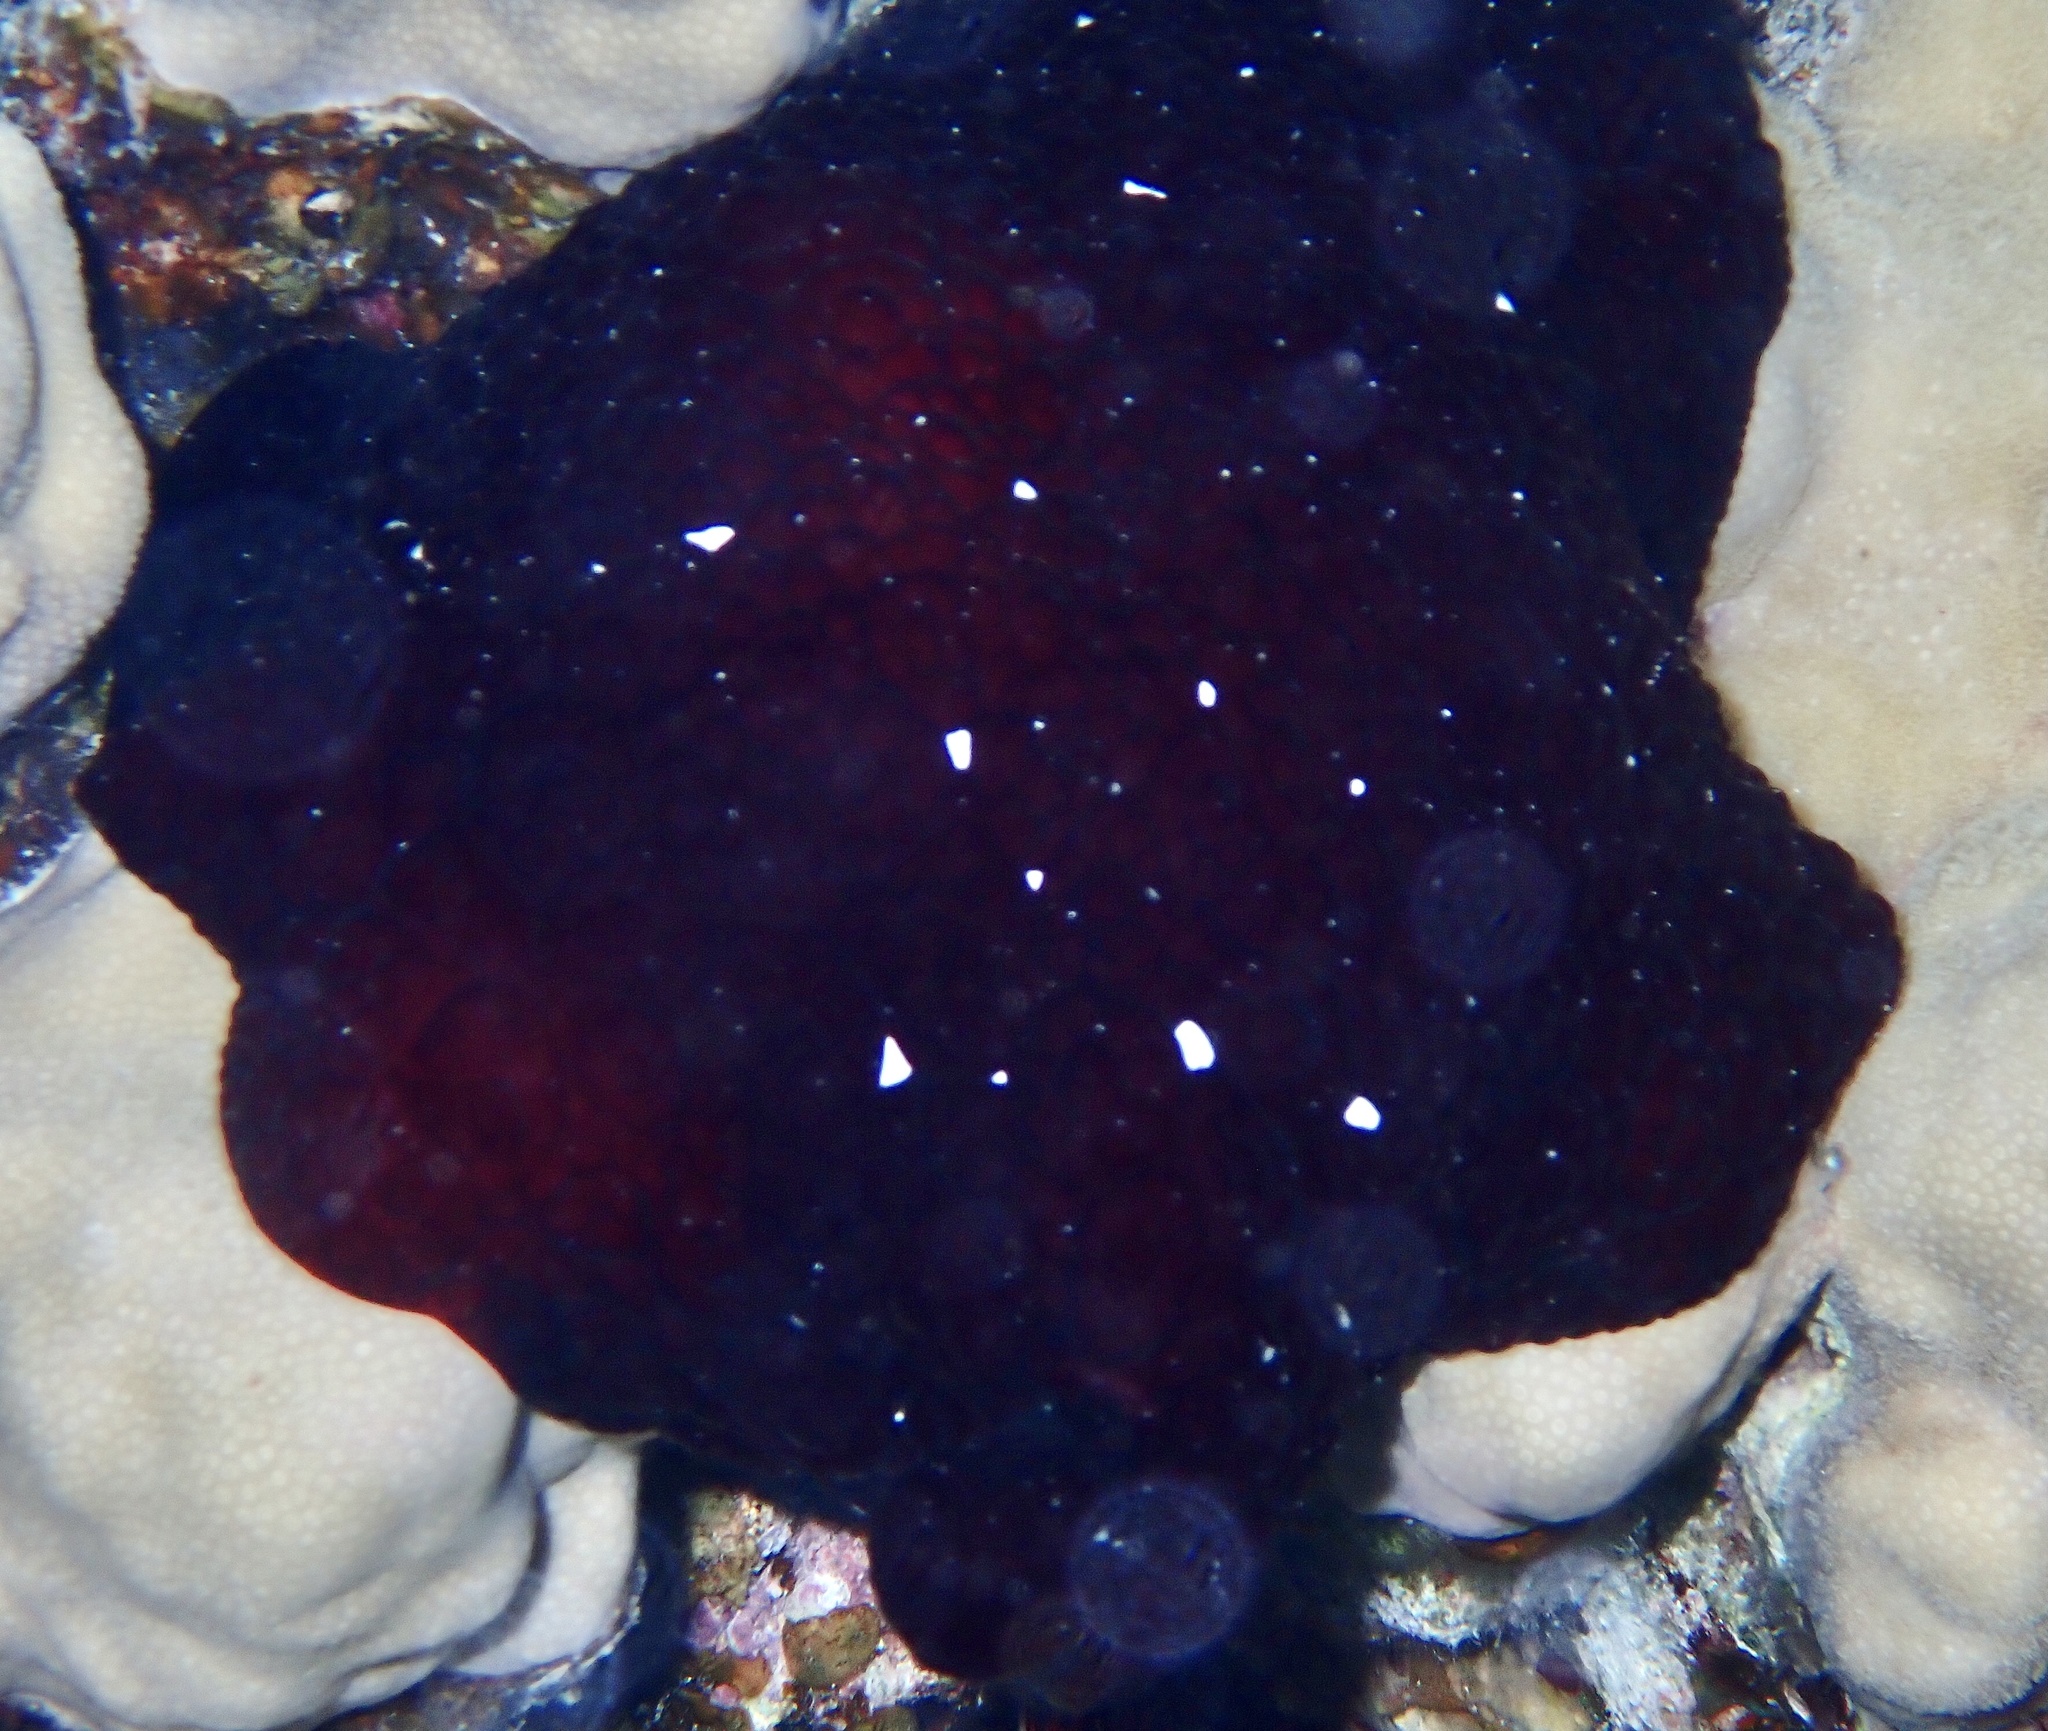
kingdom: Animalia
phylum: Mollusca
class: Gastropoda
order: Pleurobranchida
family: Pleurobranchidae
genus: Pleurobranchus
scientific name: Pleurobranchus grandis
